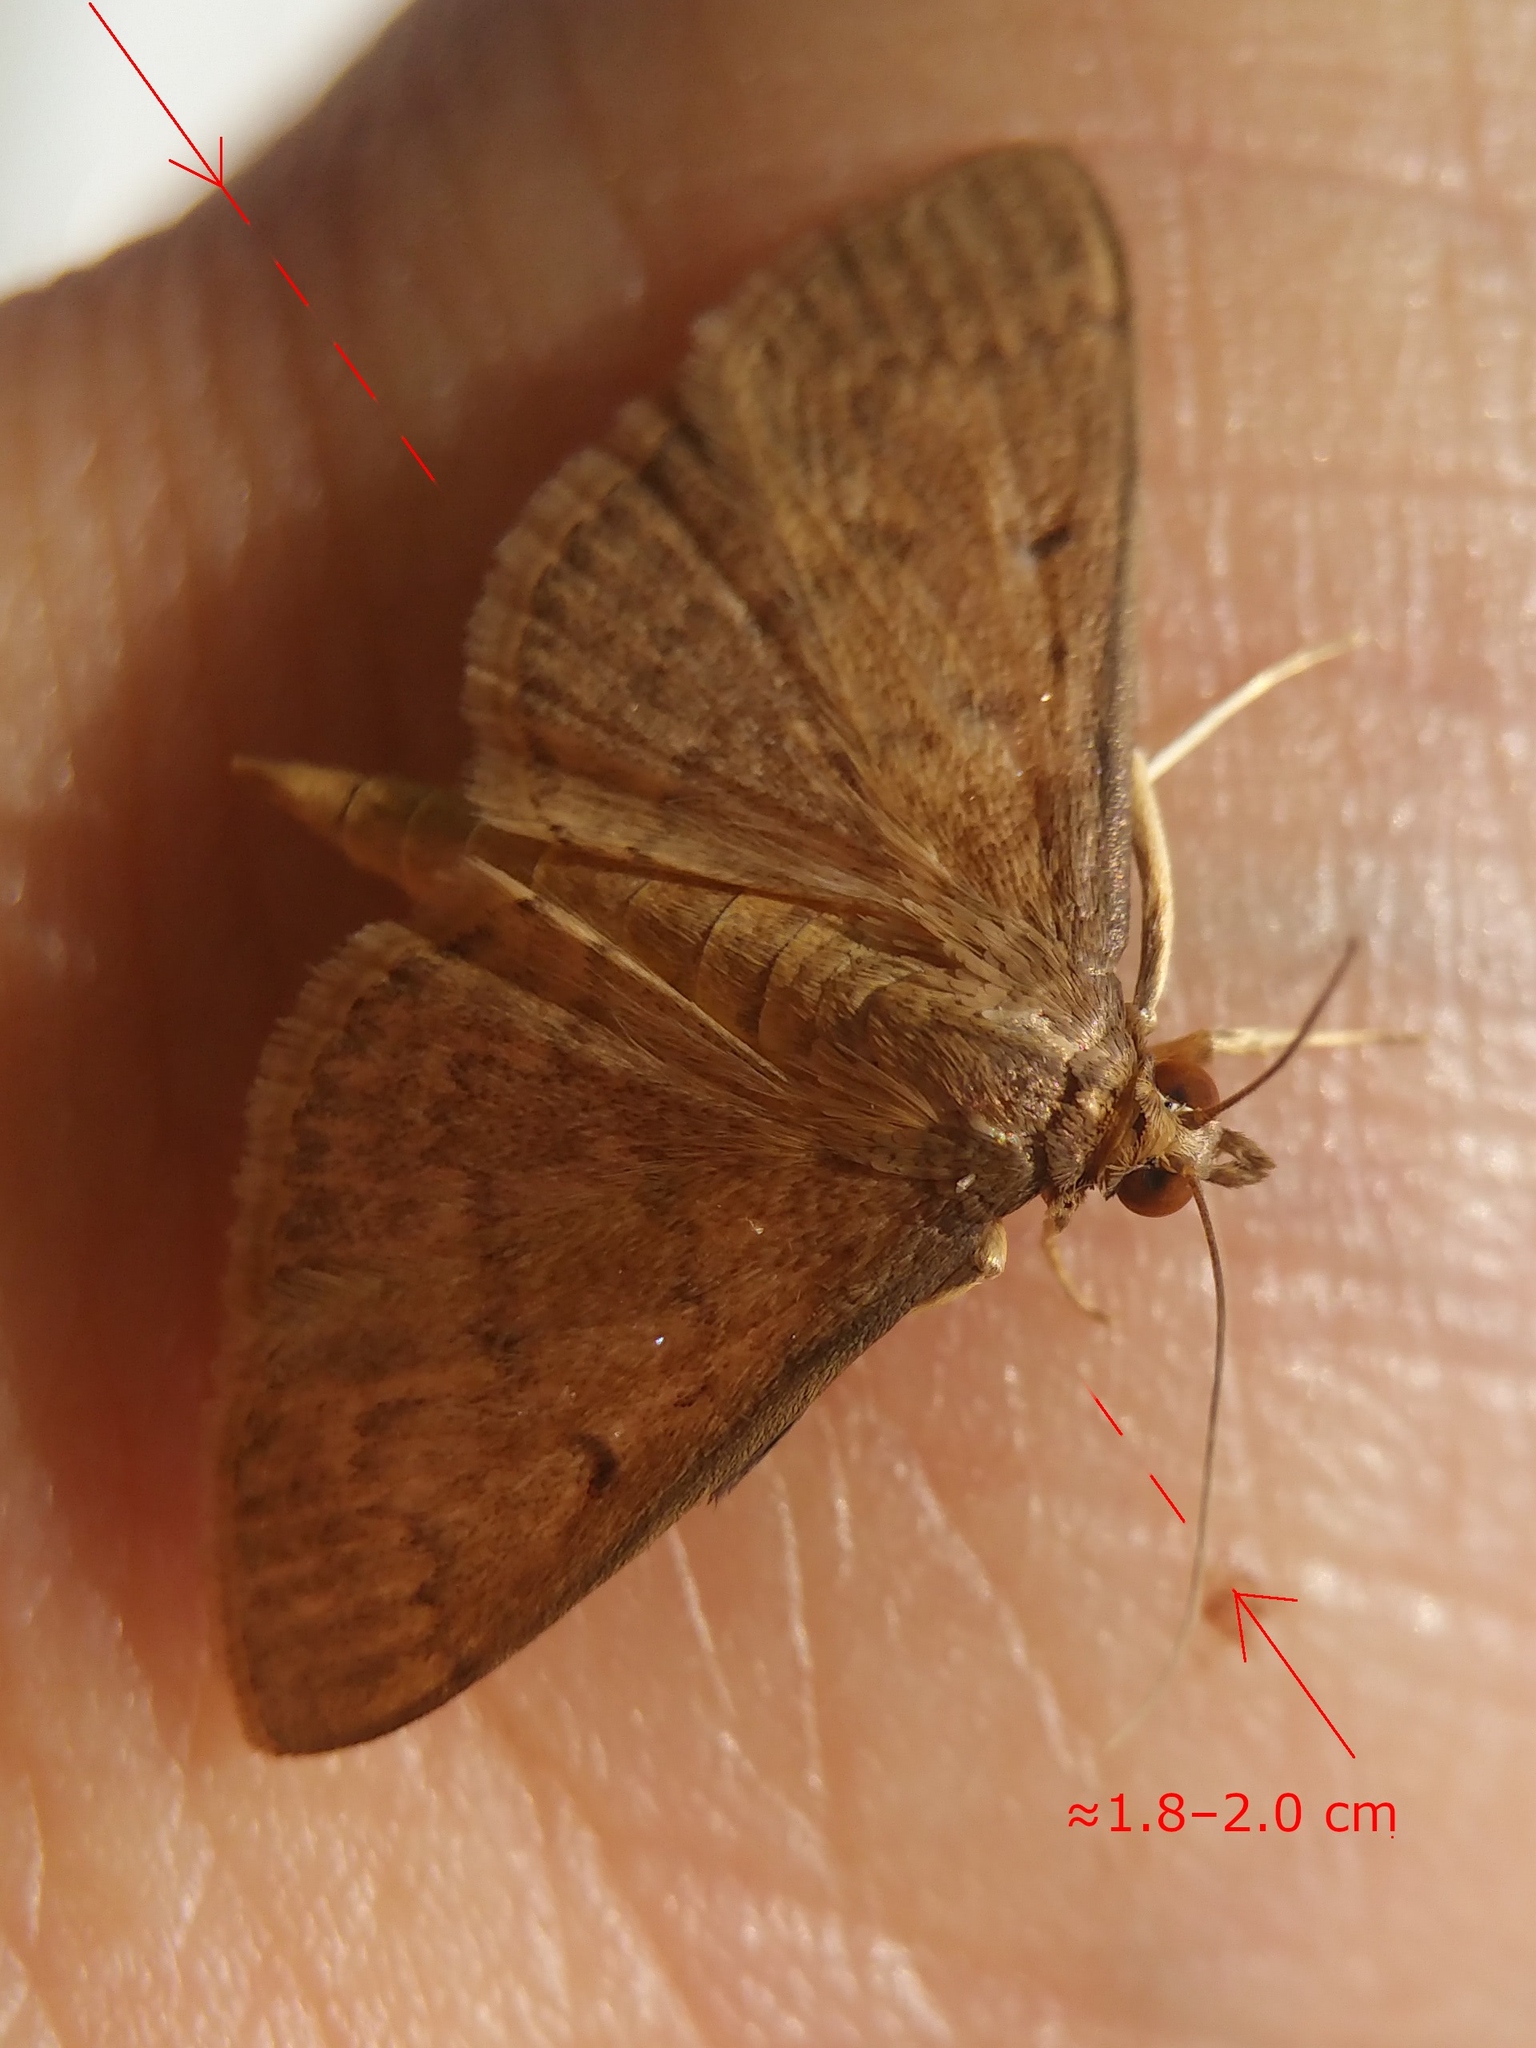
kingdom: Animalia
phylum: Arthropoda
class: Insecta
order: Lepidoptera
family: Crambidae
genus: Herpetogramma
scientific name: Herpetogramma licarsisalis
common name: Grass webworm
